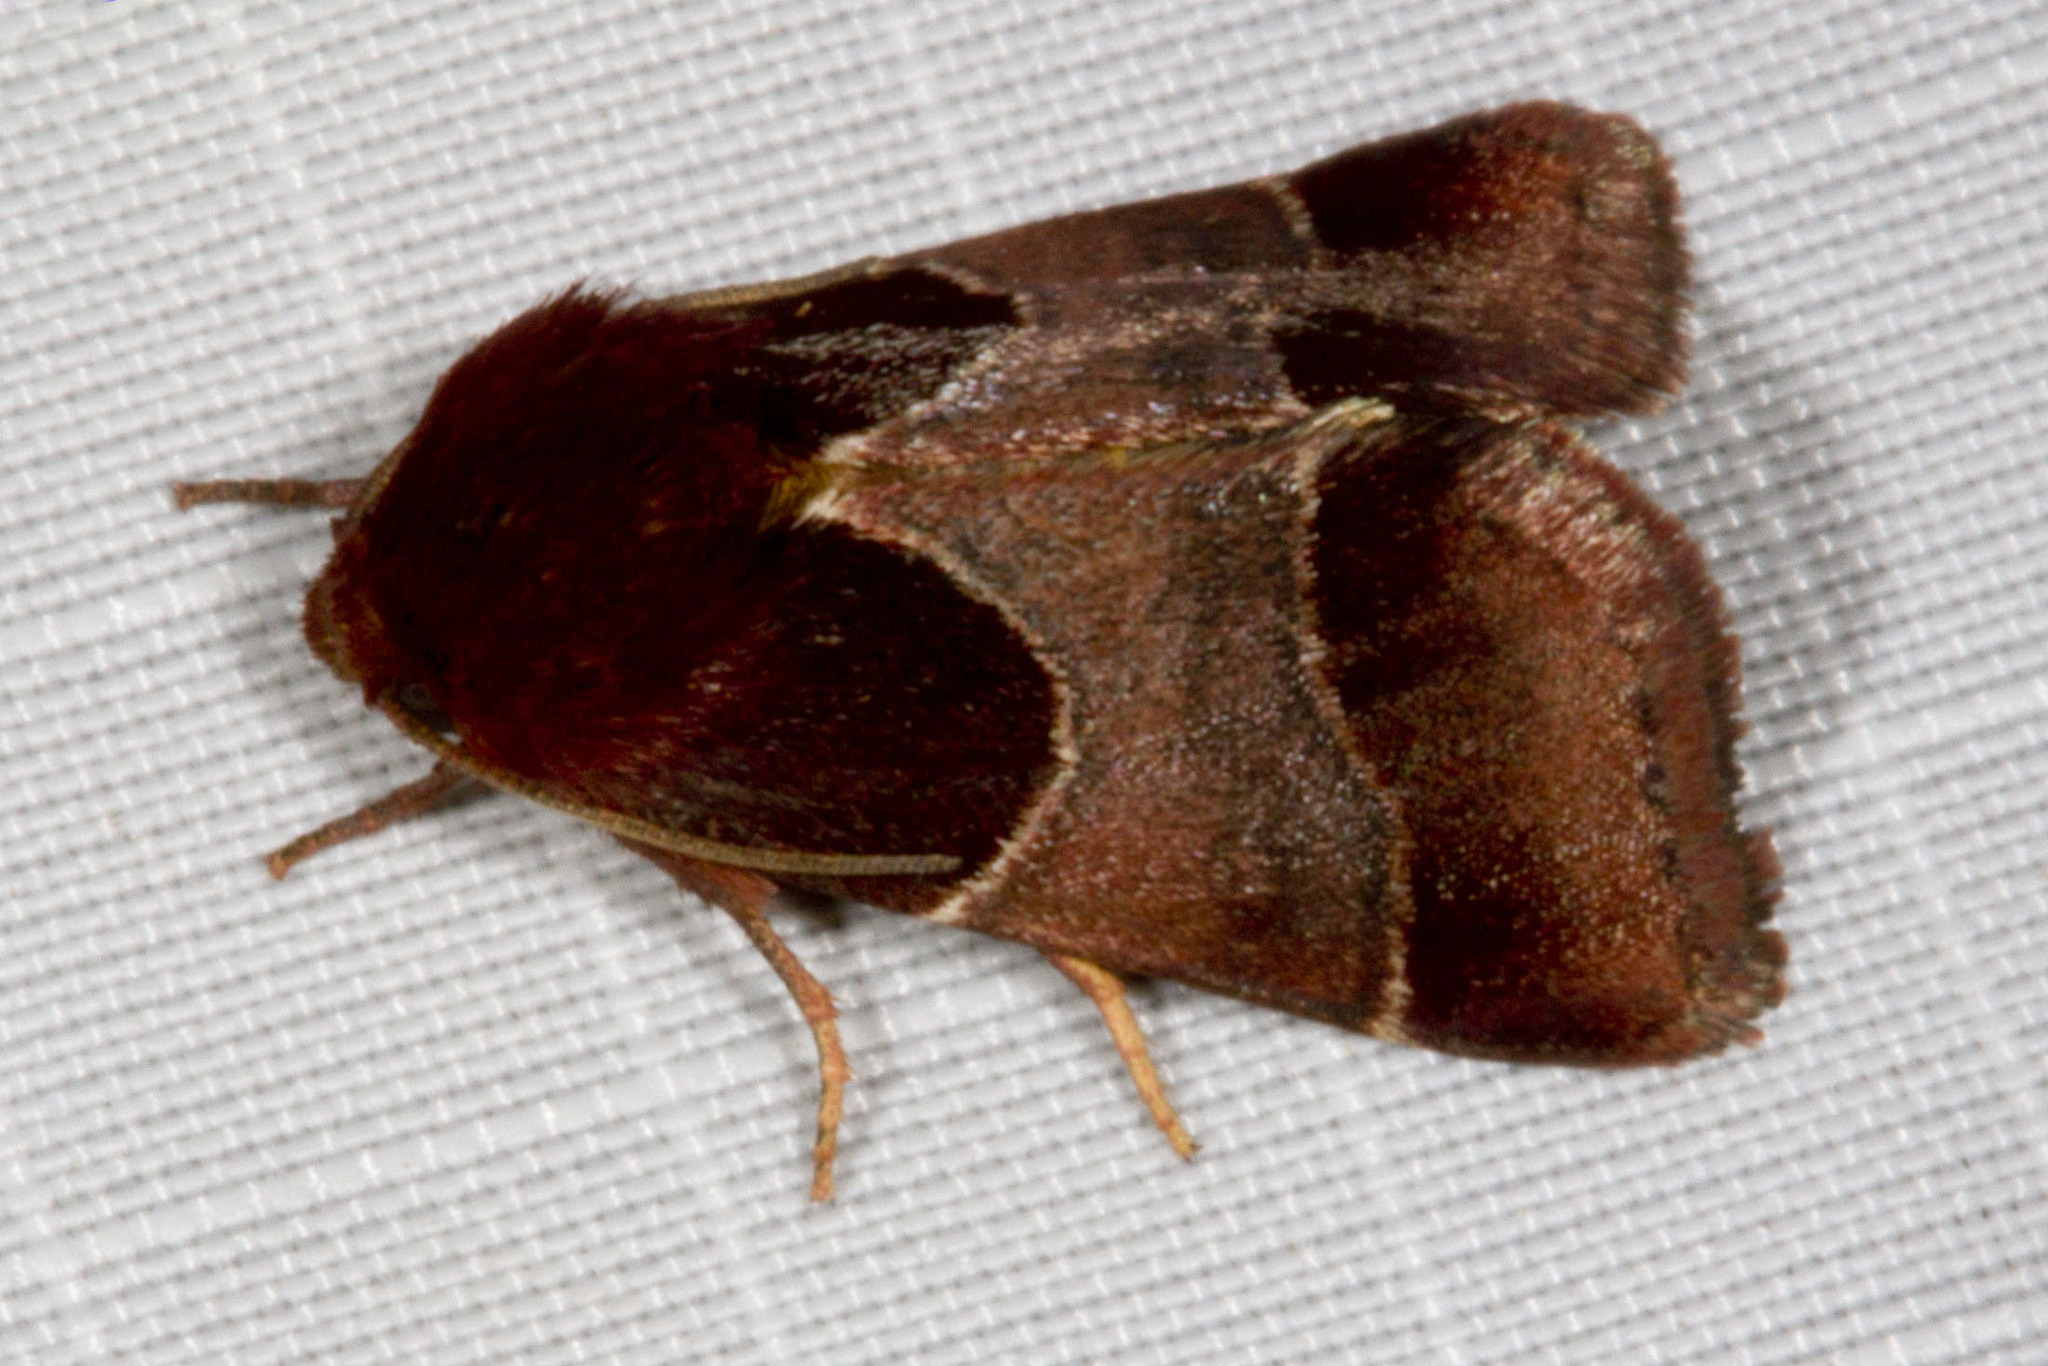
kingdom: Animalia
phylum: Arthropoda
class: Insecta
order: Lepidoptera
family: Noctuidae
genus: Schinia
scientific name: Schinia arcigera
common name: Arcigera flower moth
